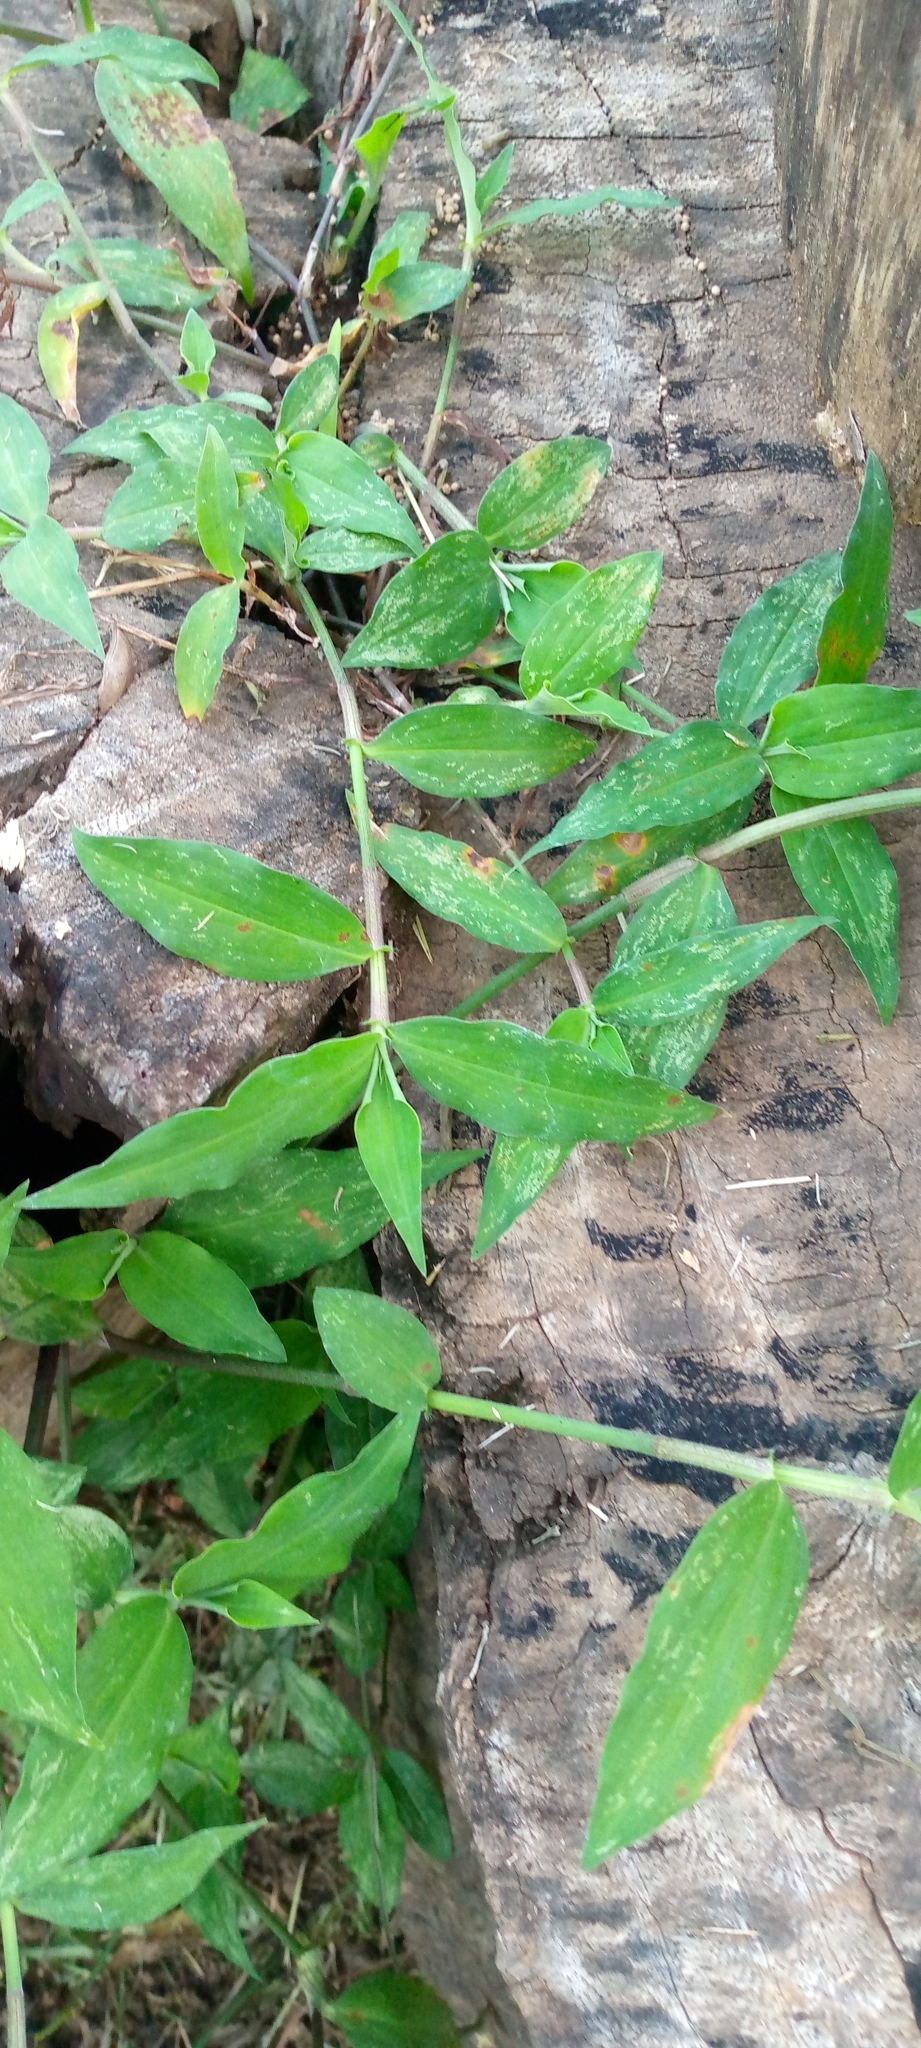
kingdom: Plantae
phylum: Tracheophyta
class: Liliopsida
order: Poales
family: Poaceae
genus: Oplismenus
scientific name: Oplismenus undulatifolius
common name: Wavyleaf basketgrass
